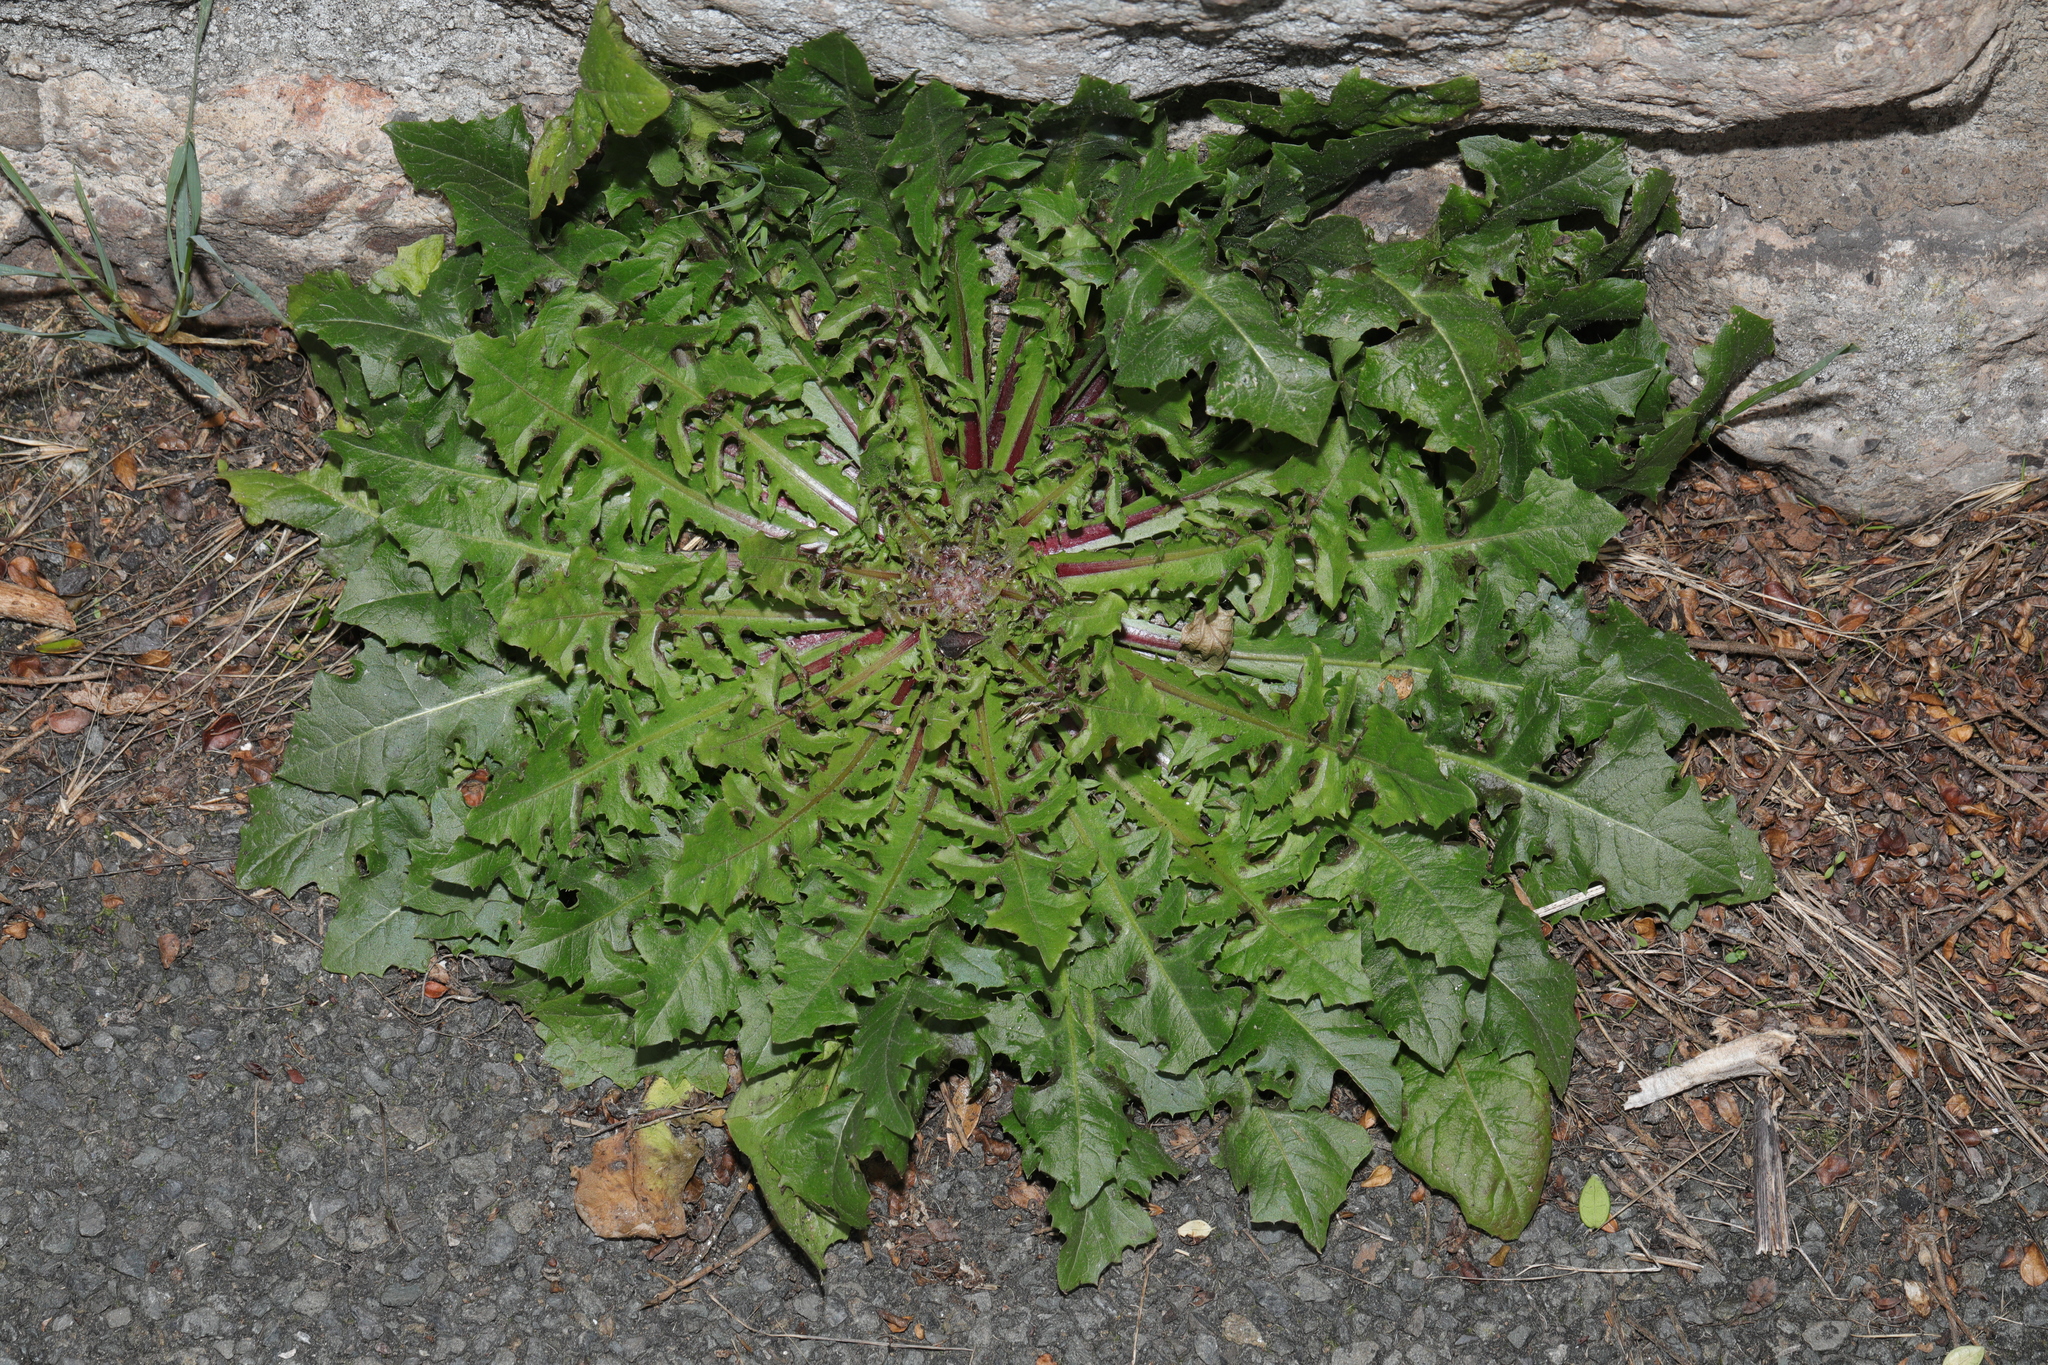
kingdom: Plantae
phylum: Tracheophyta
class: Magnoliopsida
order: Asterales
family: Asteraceae
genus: Sonchus
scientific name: Sonchus asper
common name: Prickly sow-thistle
